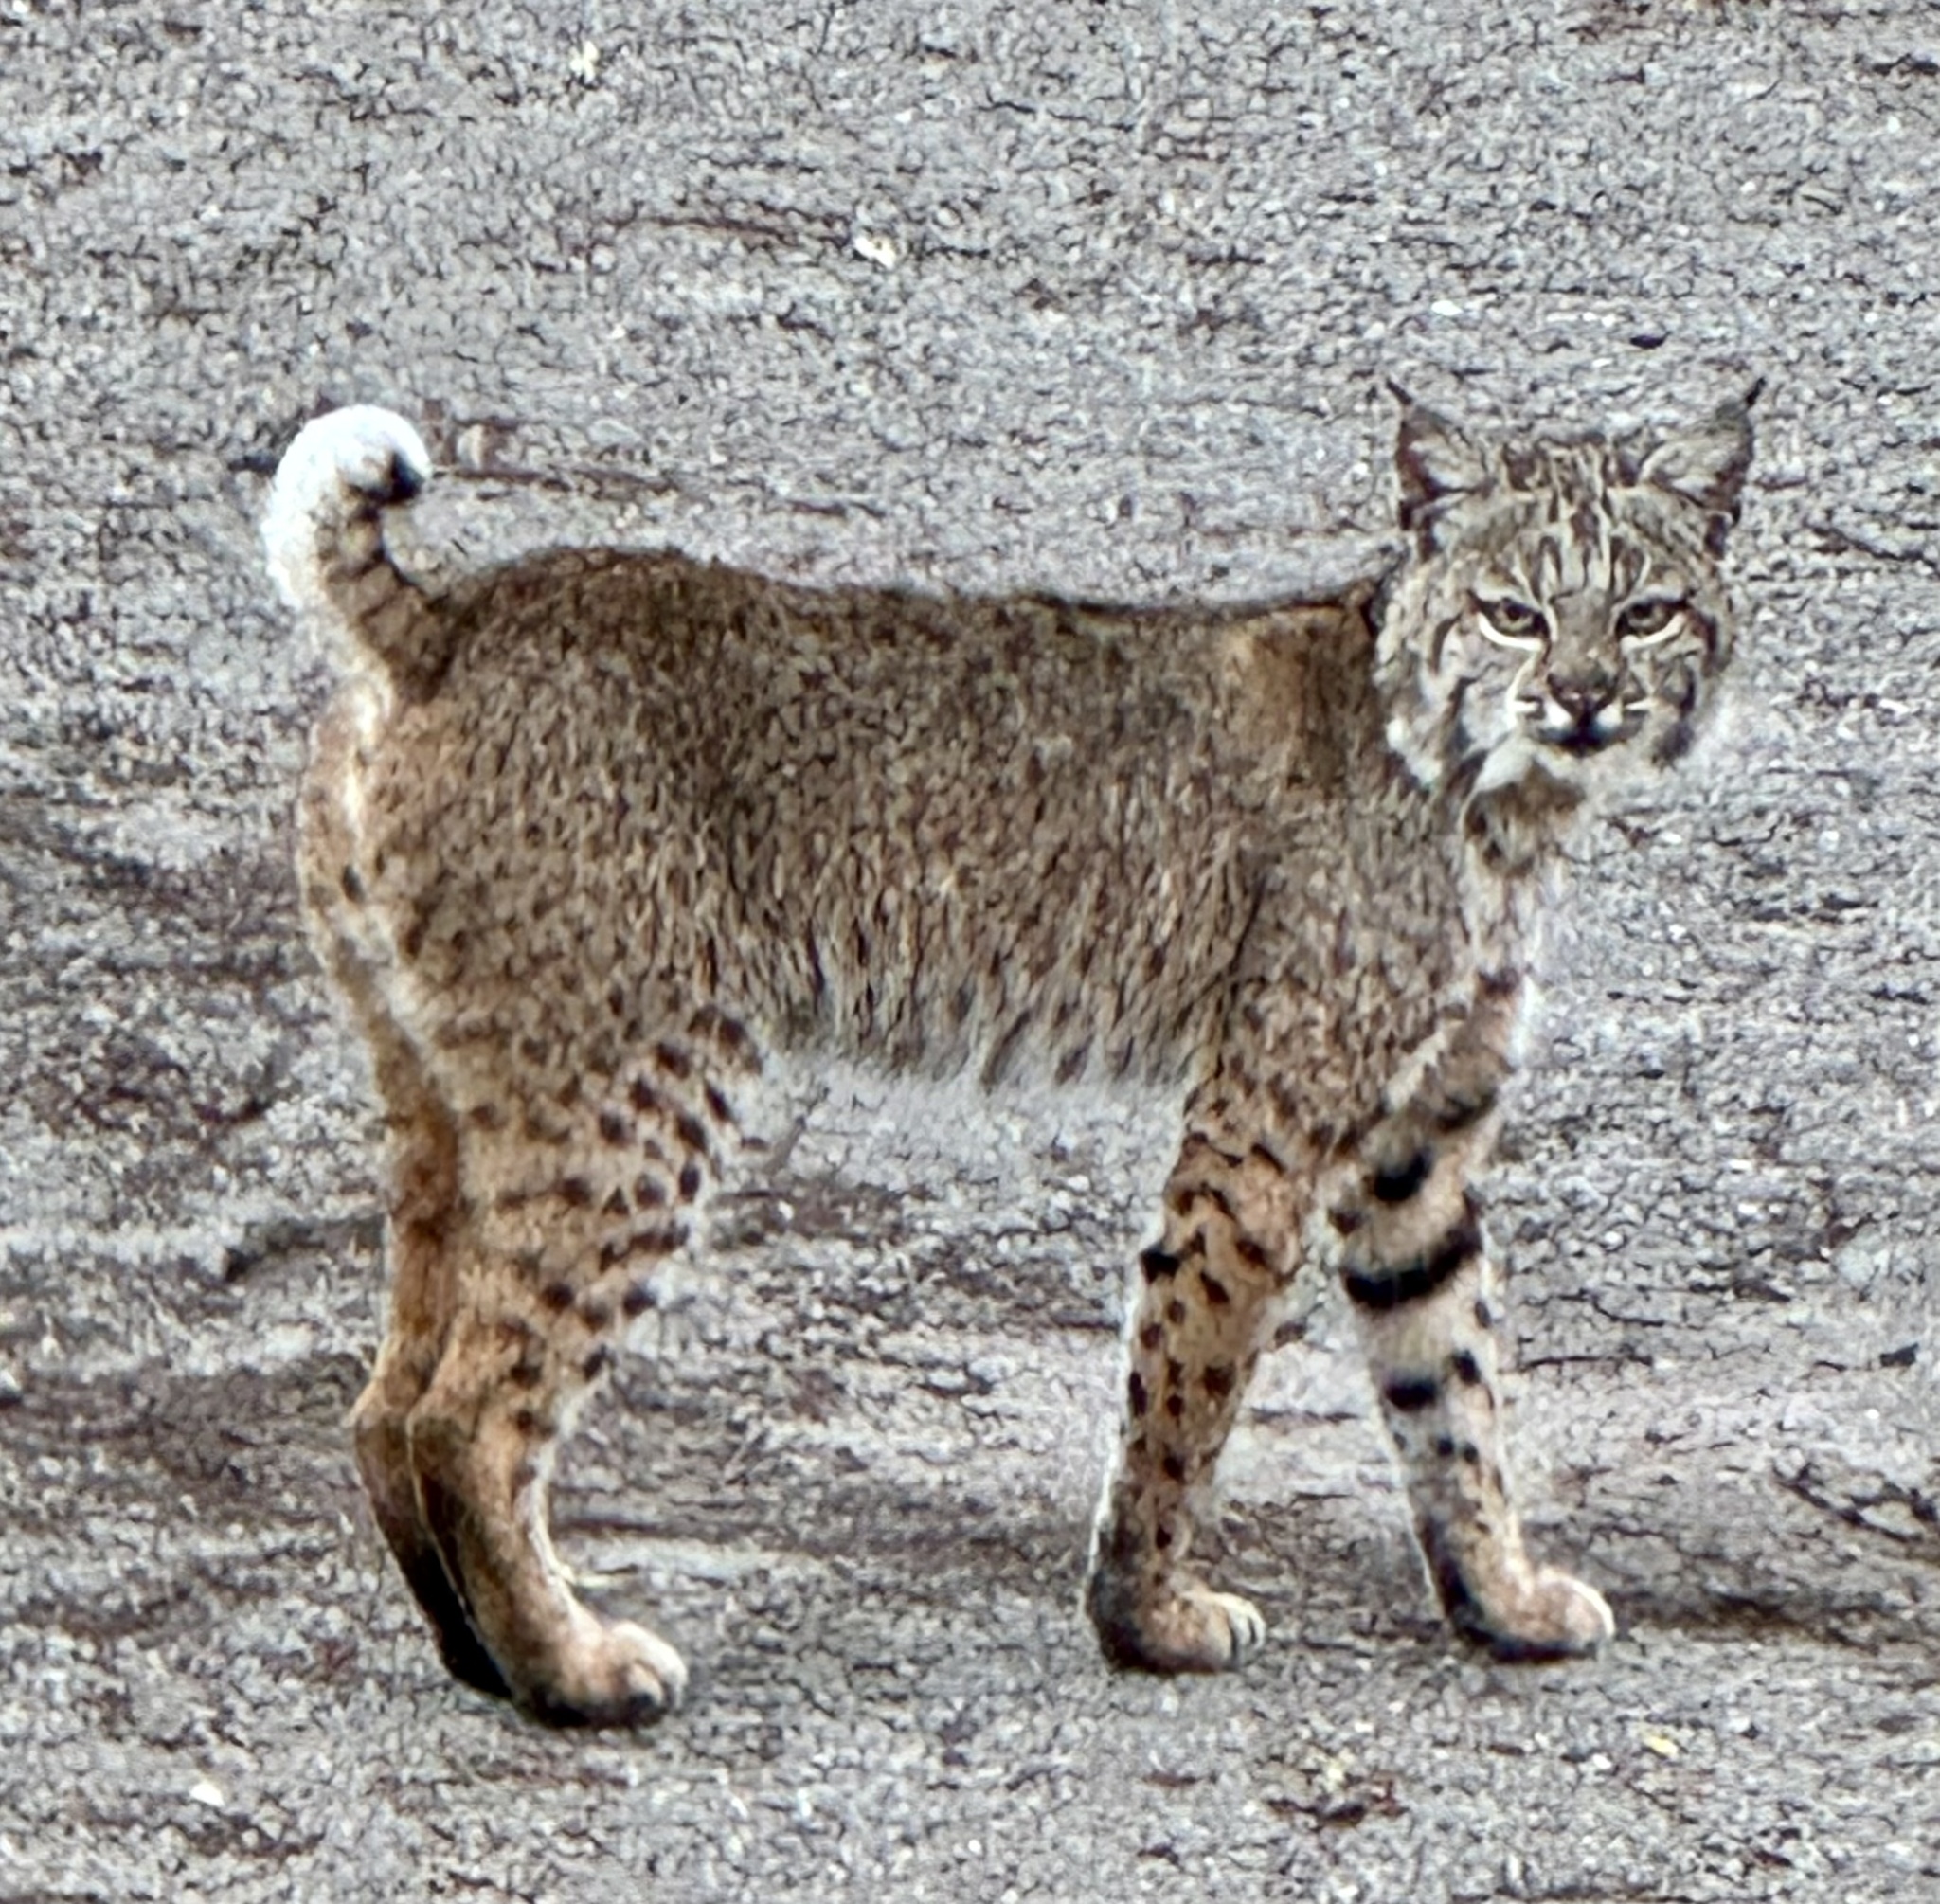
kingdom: Animalia
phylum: Chordata
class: Mammalia
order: Carnivora
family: Felidae
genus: Lynx
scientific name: Lynx rufus
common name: Bobcat
